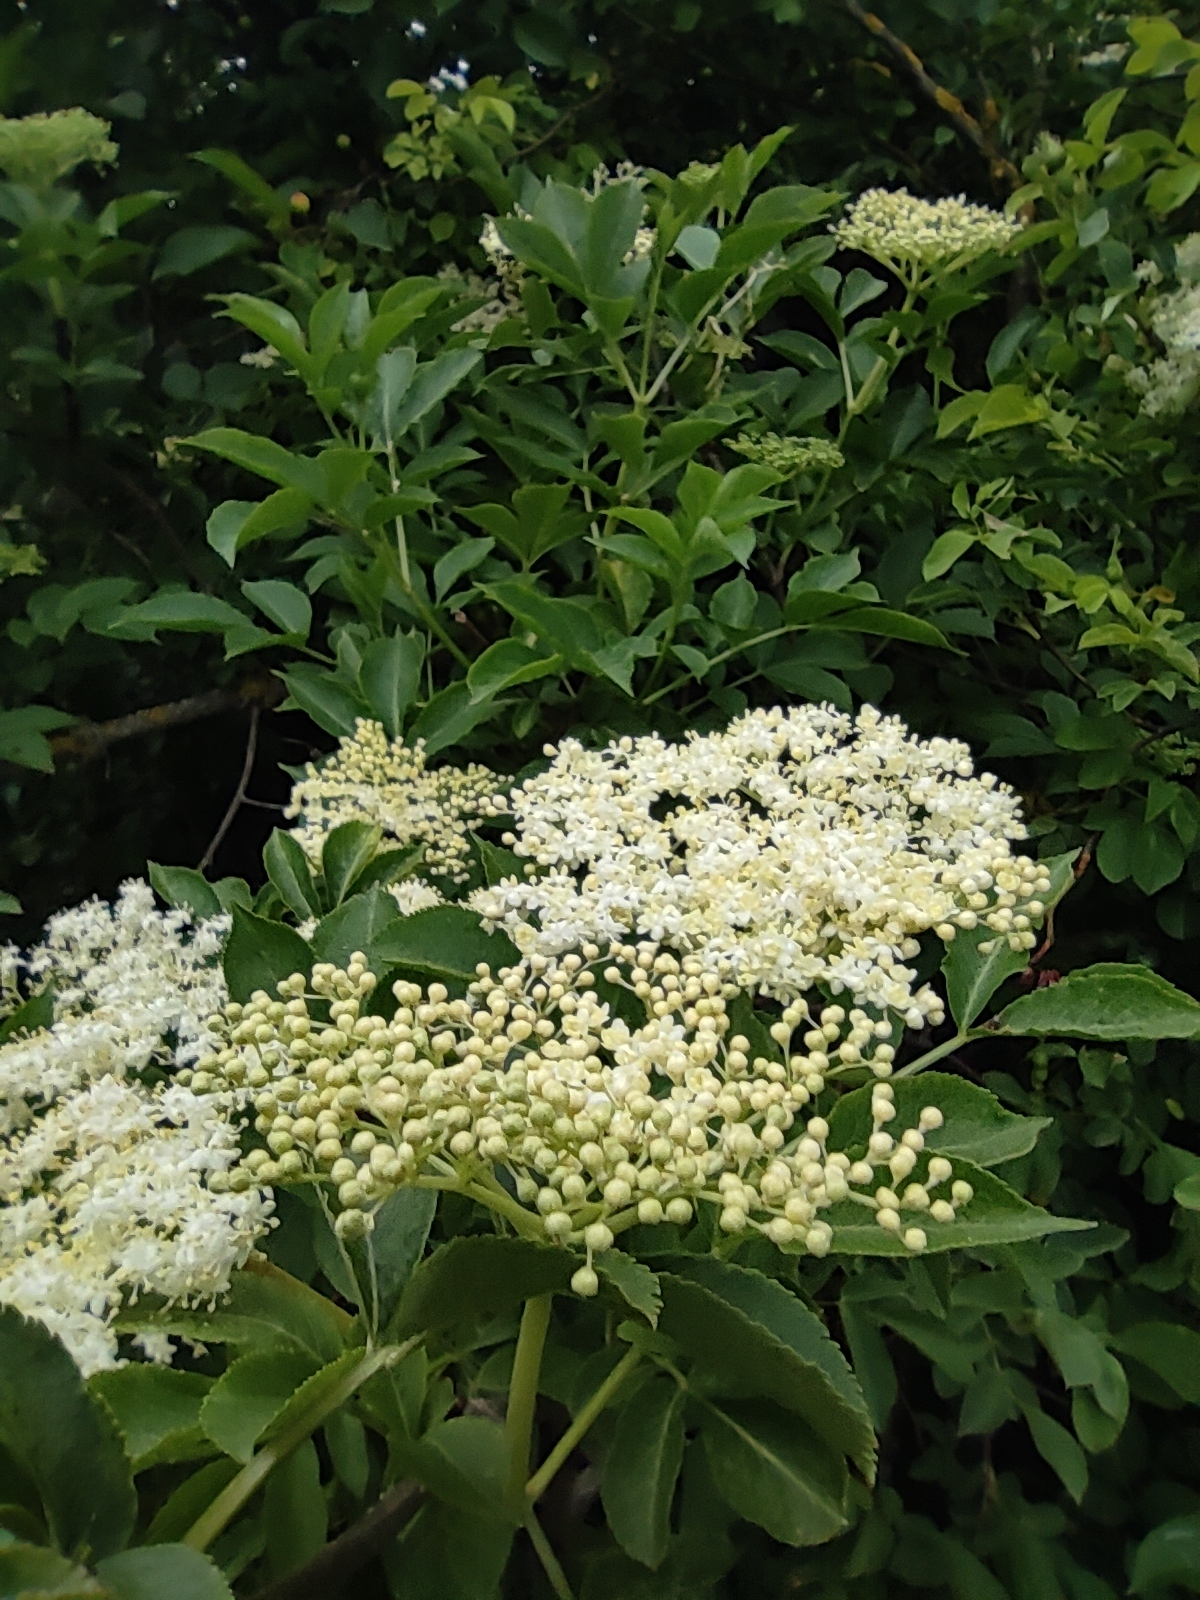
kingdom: Plantae
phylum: Tracheophyta
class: Magnoliopsida
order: Dipsacales
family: Viburnaceae
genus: Sambucus
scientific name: Sambucus nigra
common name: Elder
